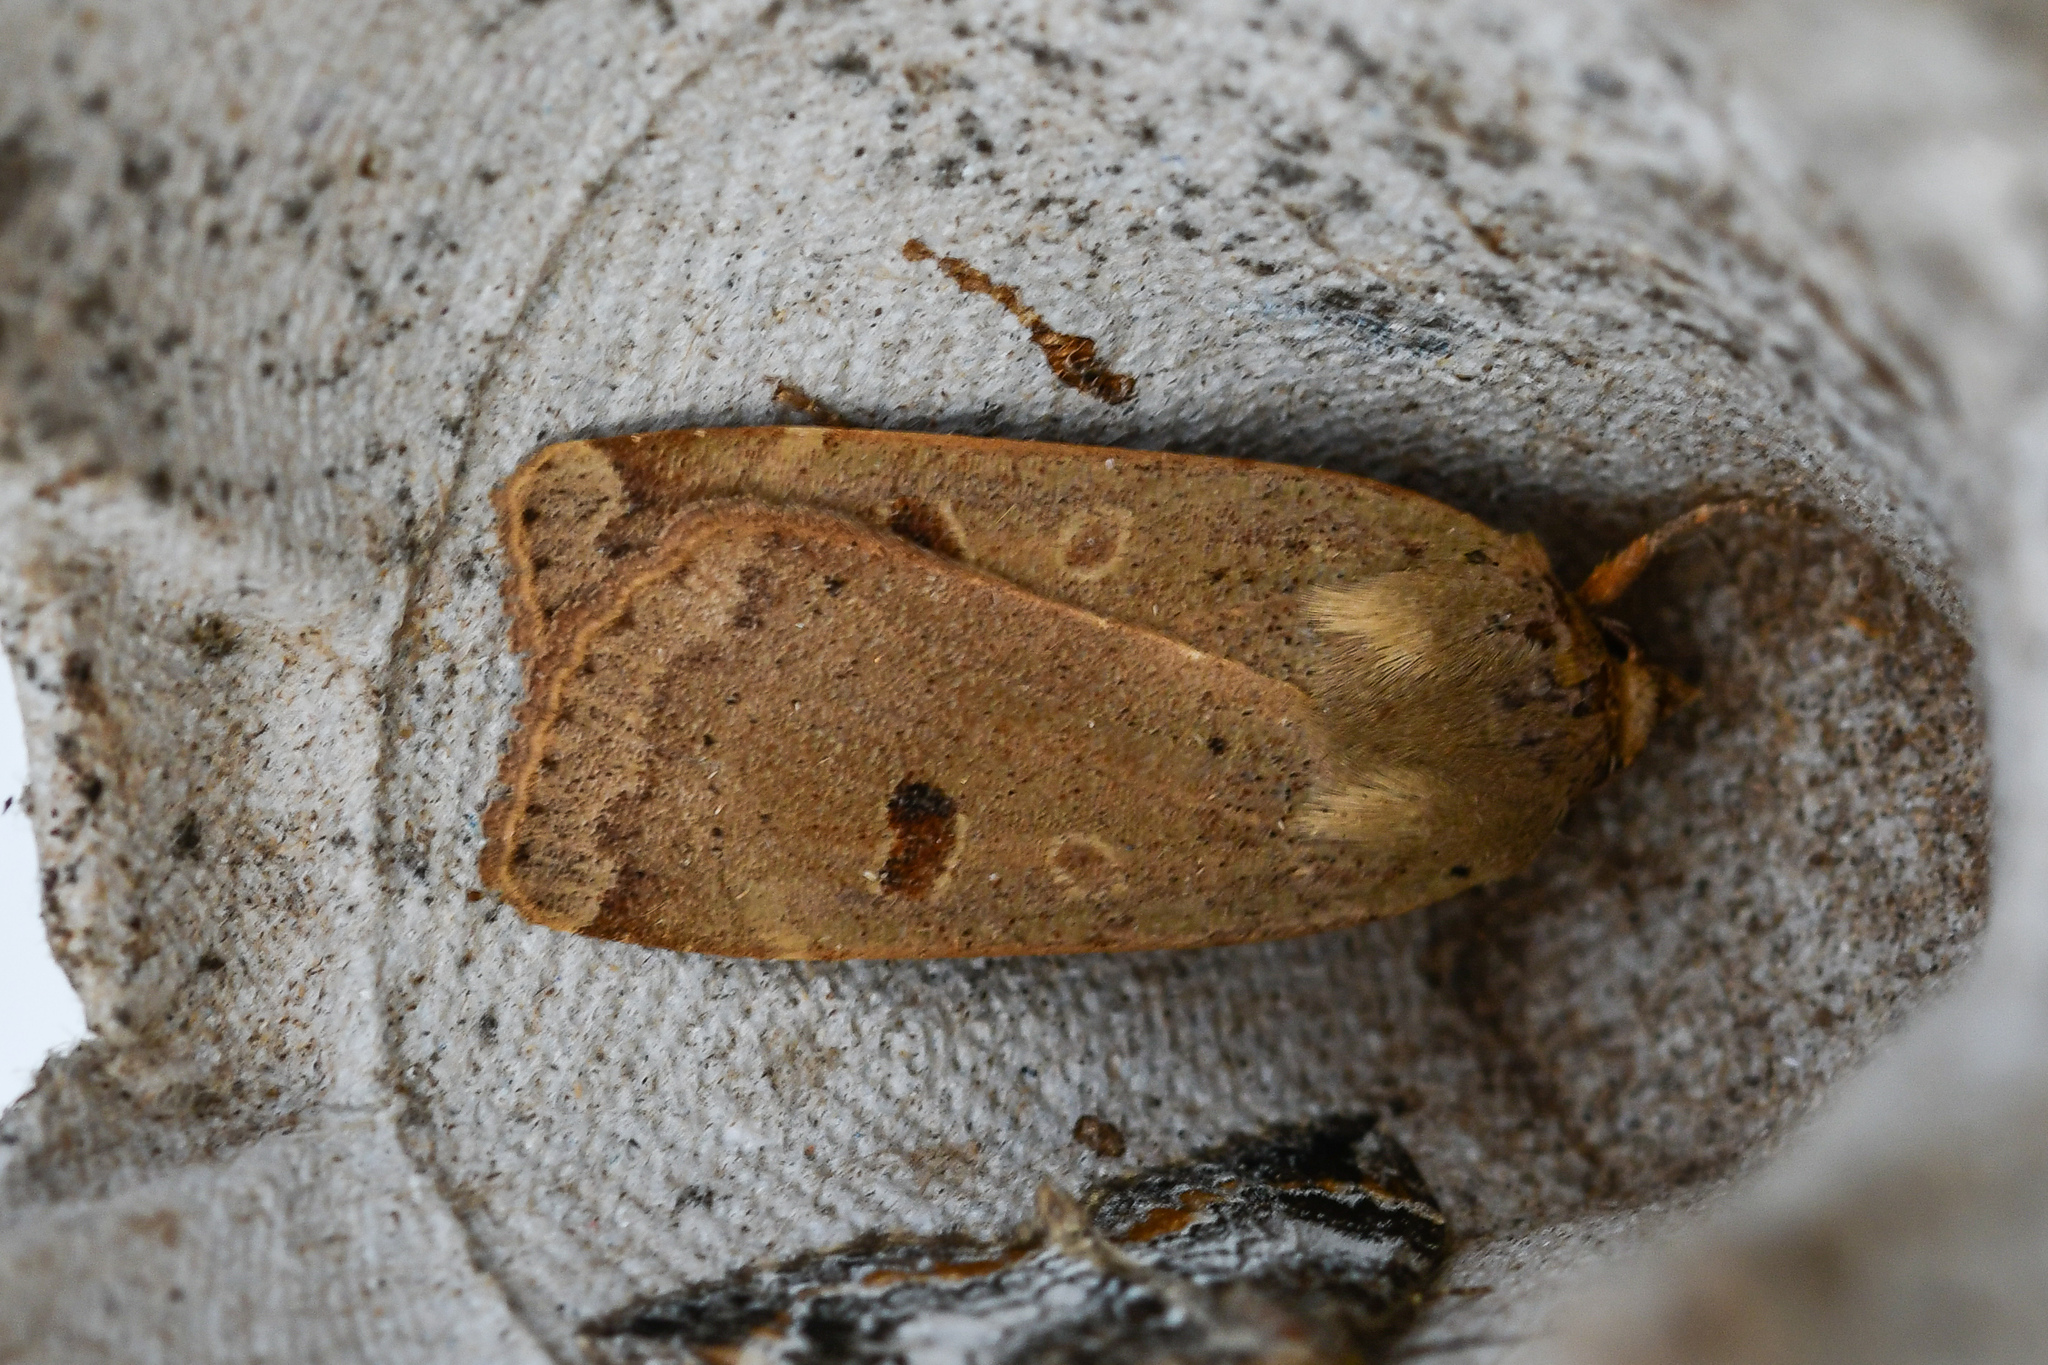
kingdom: Animalia
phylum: Arthropoda
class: Insecta
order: Lepidoptera
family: Noctuidae
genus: Noctua
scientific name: Noctua comes
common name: Lesser yellow underwing
